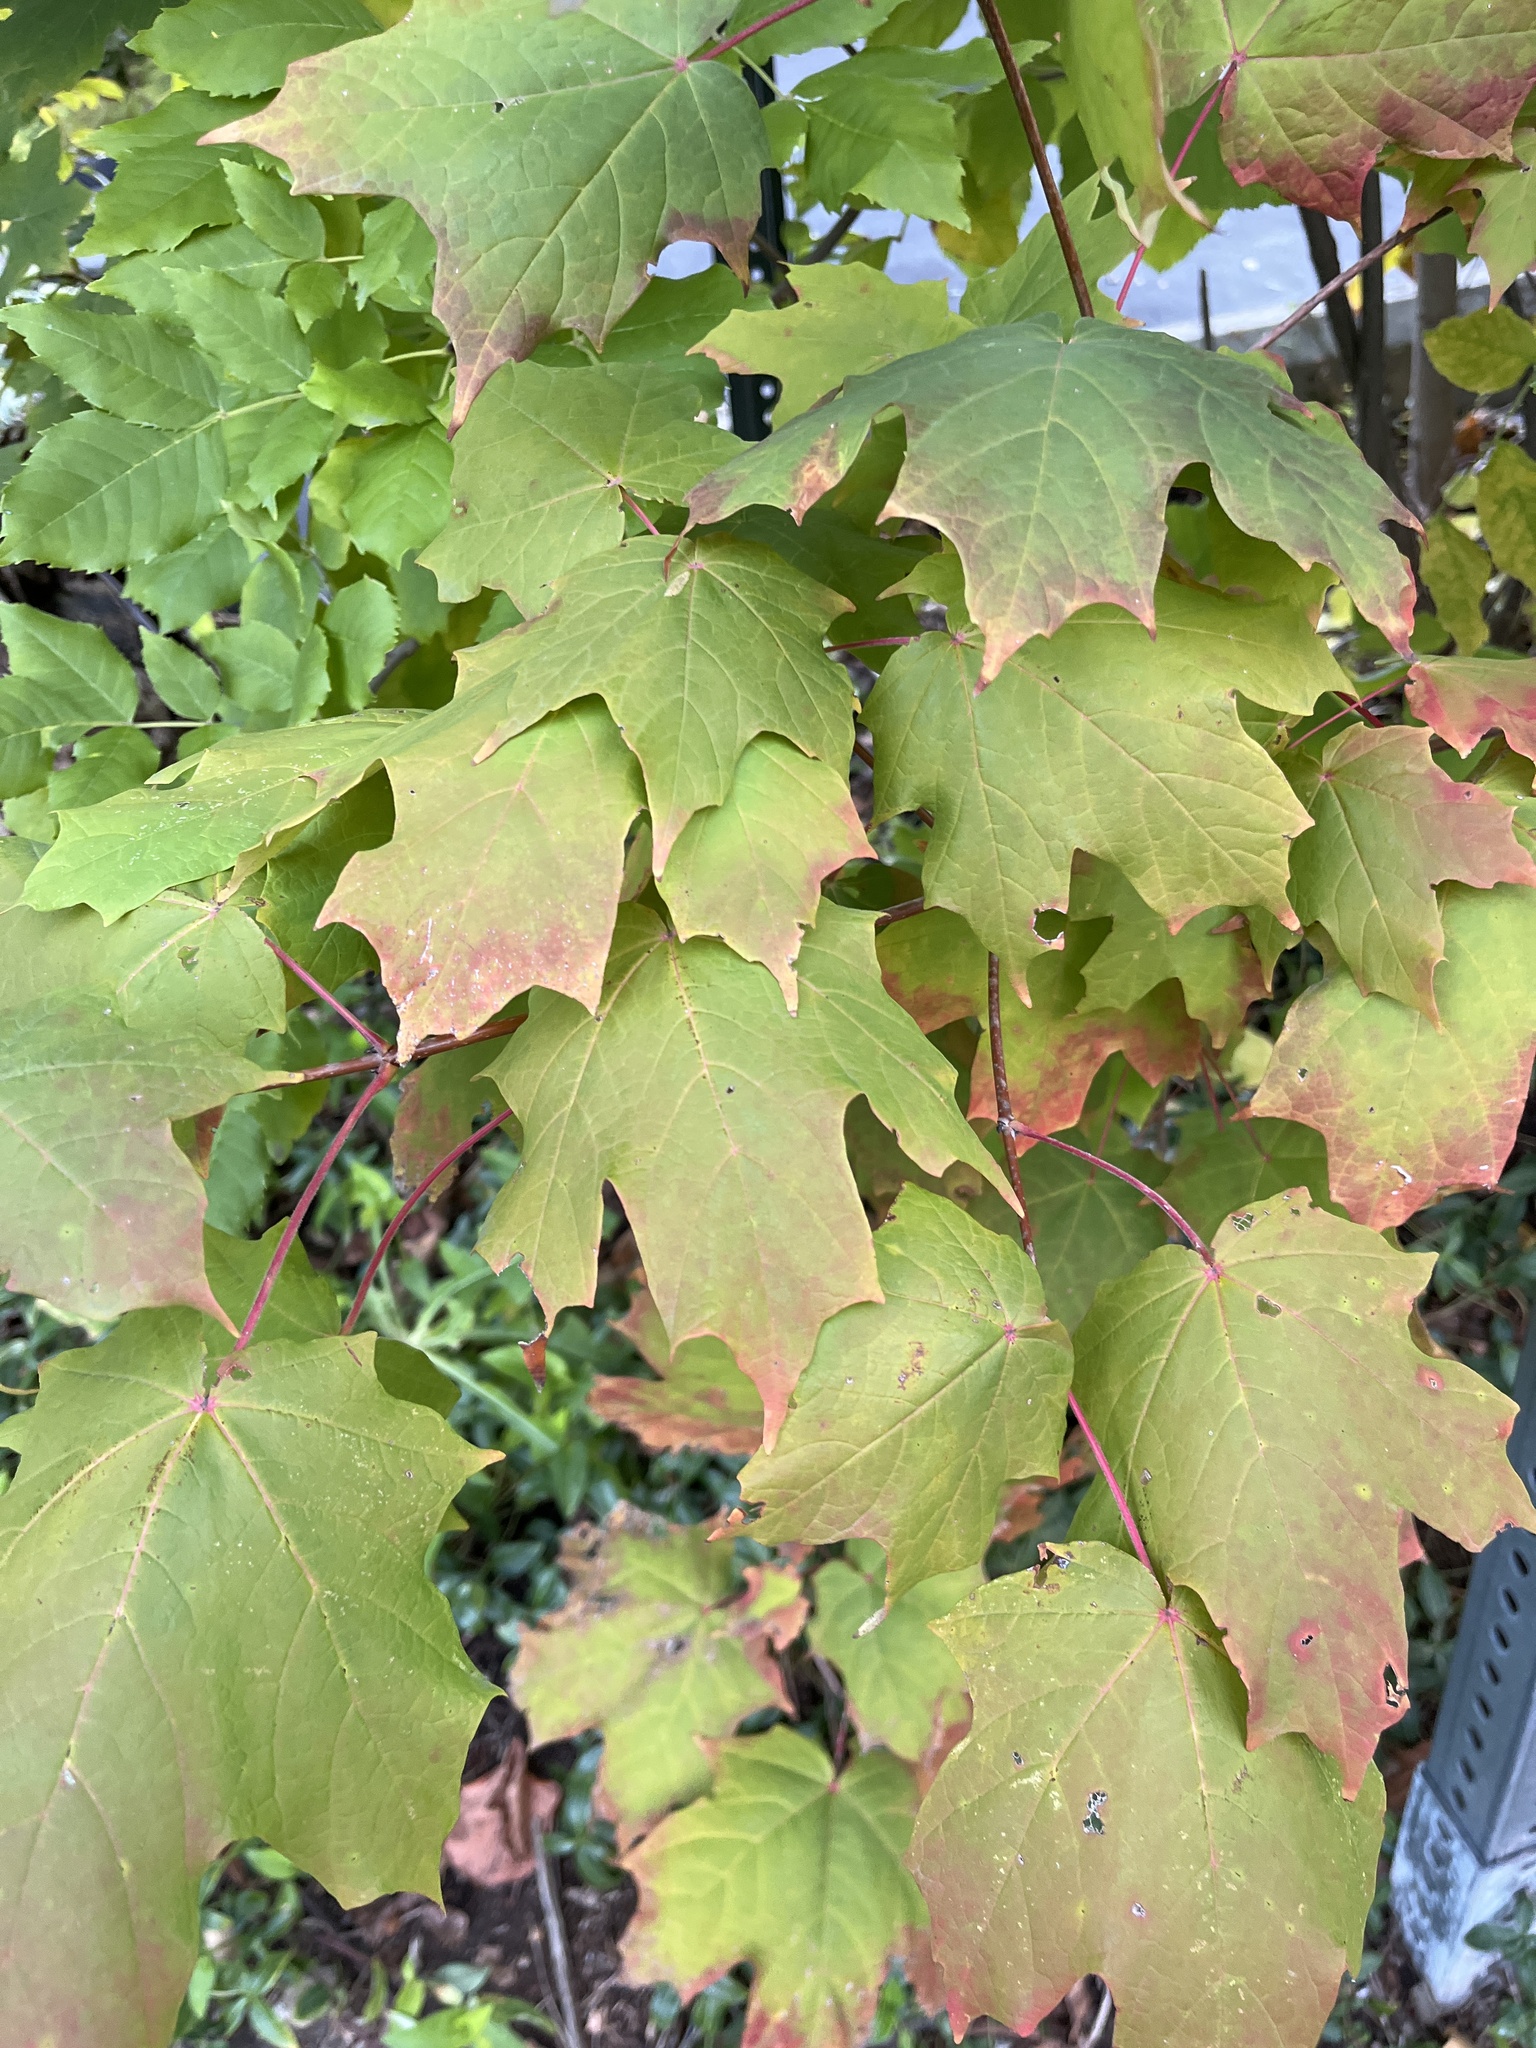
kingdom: Plantae
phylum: Tracheophyta
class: Magnoliopsida
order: Sapindales
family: Sapindaceae
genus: Acer
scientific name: Acer saccharum
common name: Sugar maple
